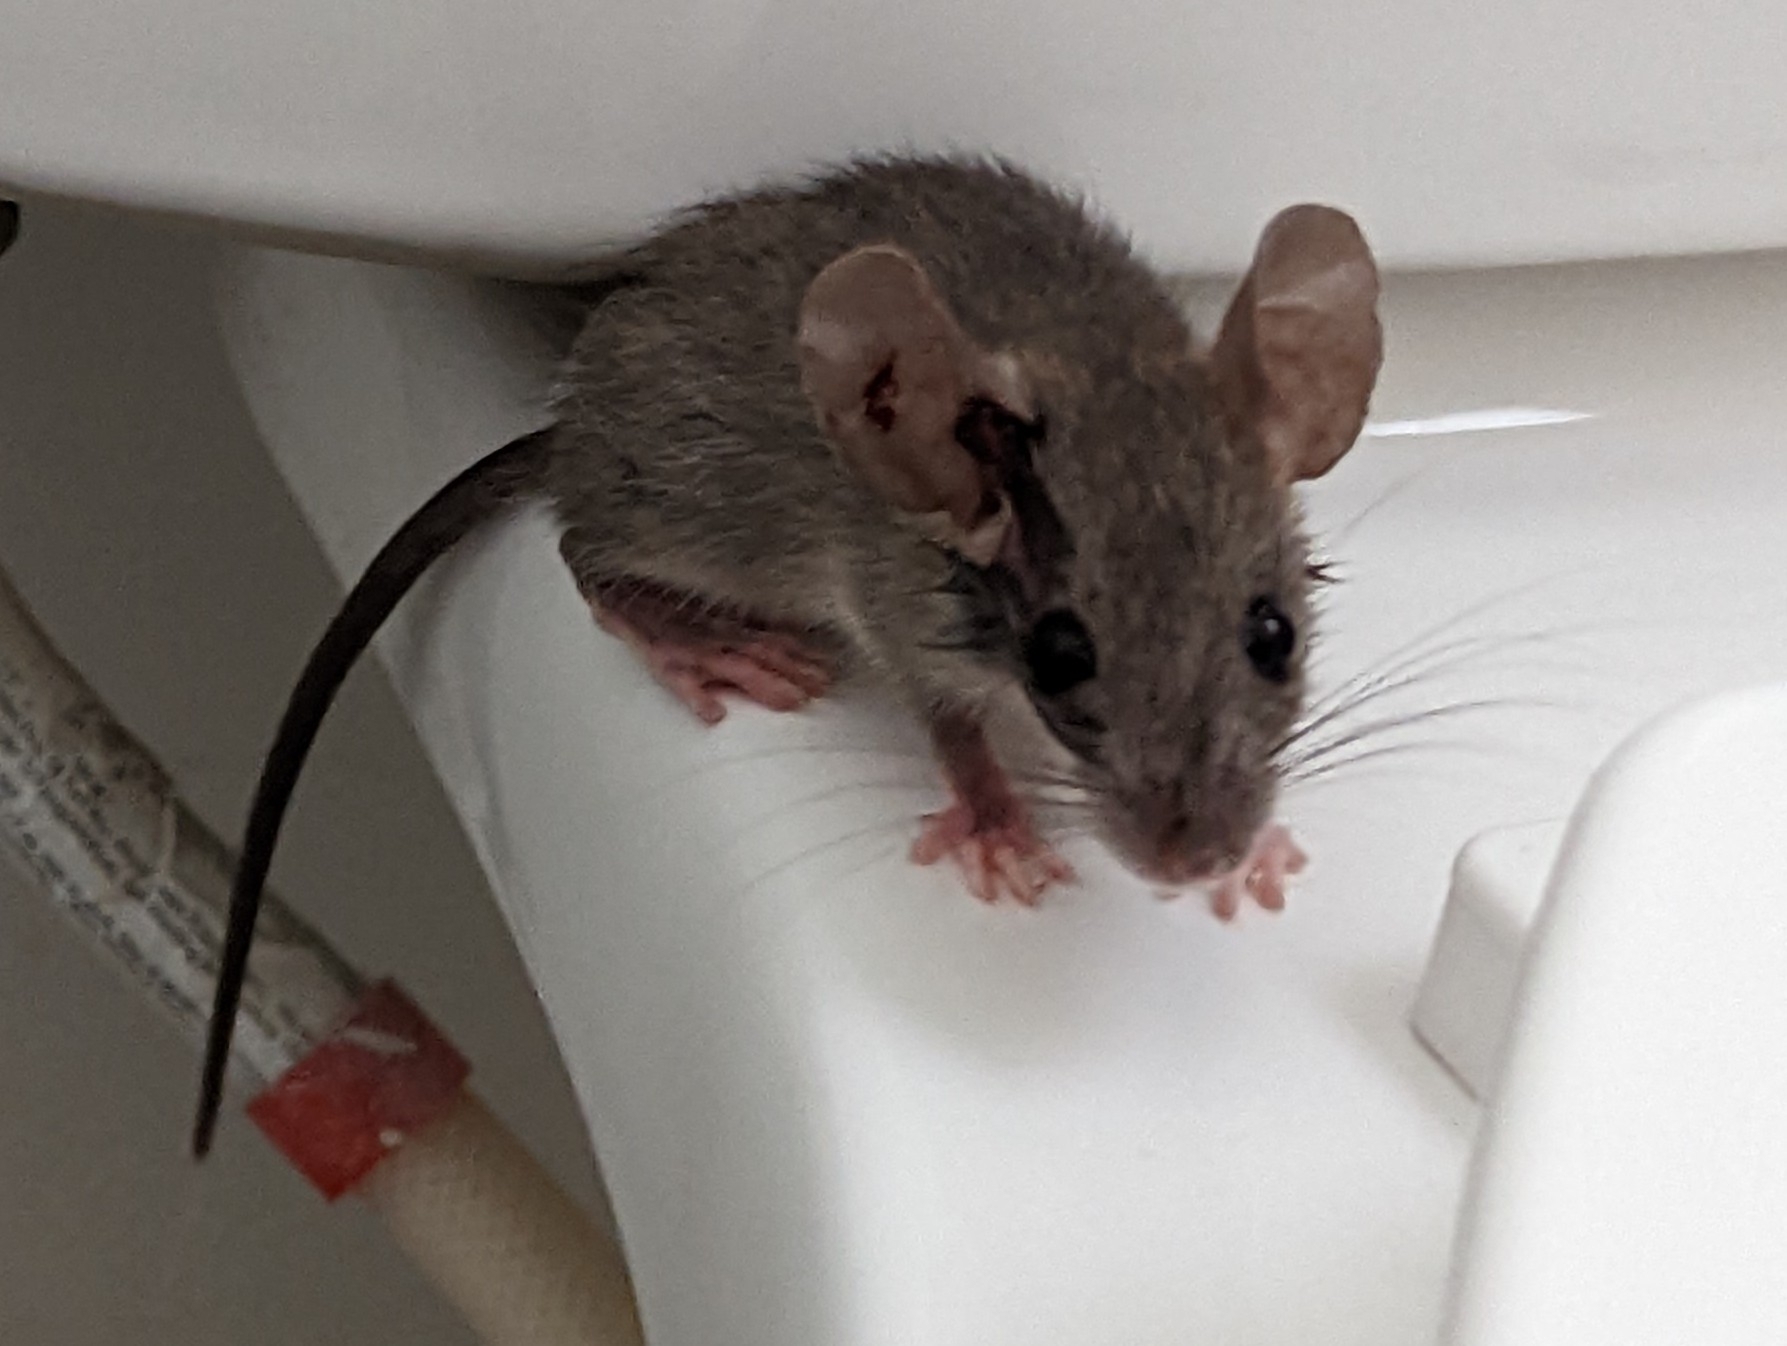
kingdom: Animalia
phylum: Chordata
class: Mammalia
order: Rodentia
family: Muridae
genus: Mus
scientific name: Mus musculus
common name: House mouse
